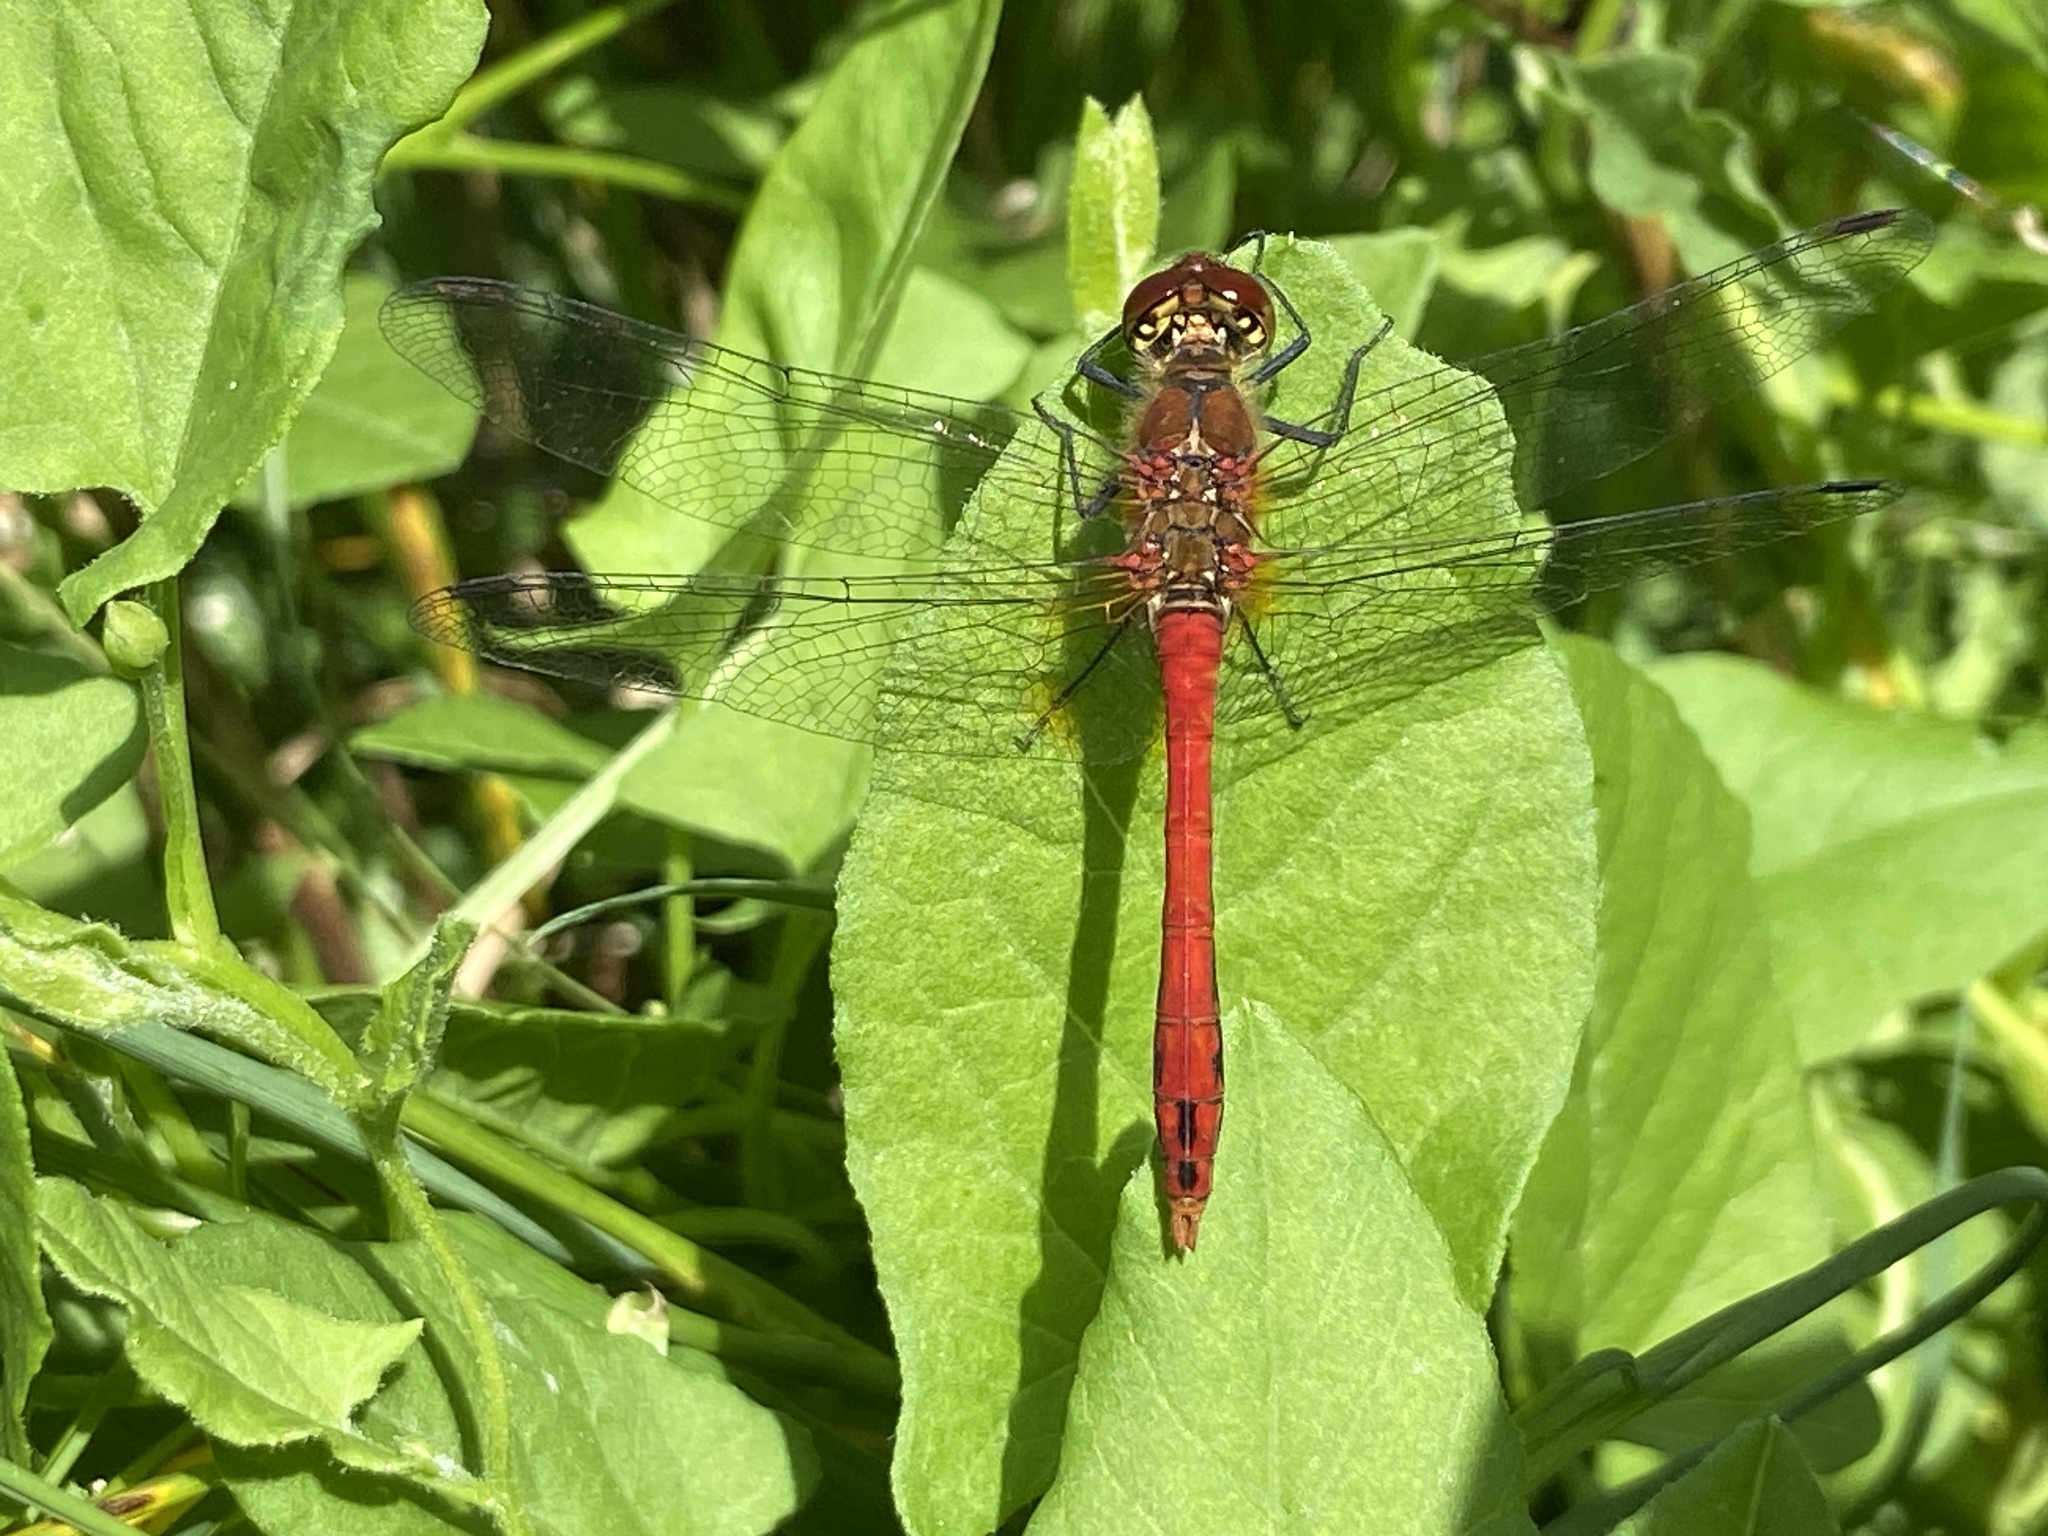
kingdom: Animalia
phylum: Arthropoda
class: Insecta
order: Odonata
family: Libellulidae
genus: Sympetrum
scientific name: Sympetrum sanguineum
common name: Ruddy darter
